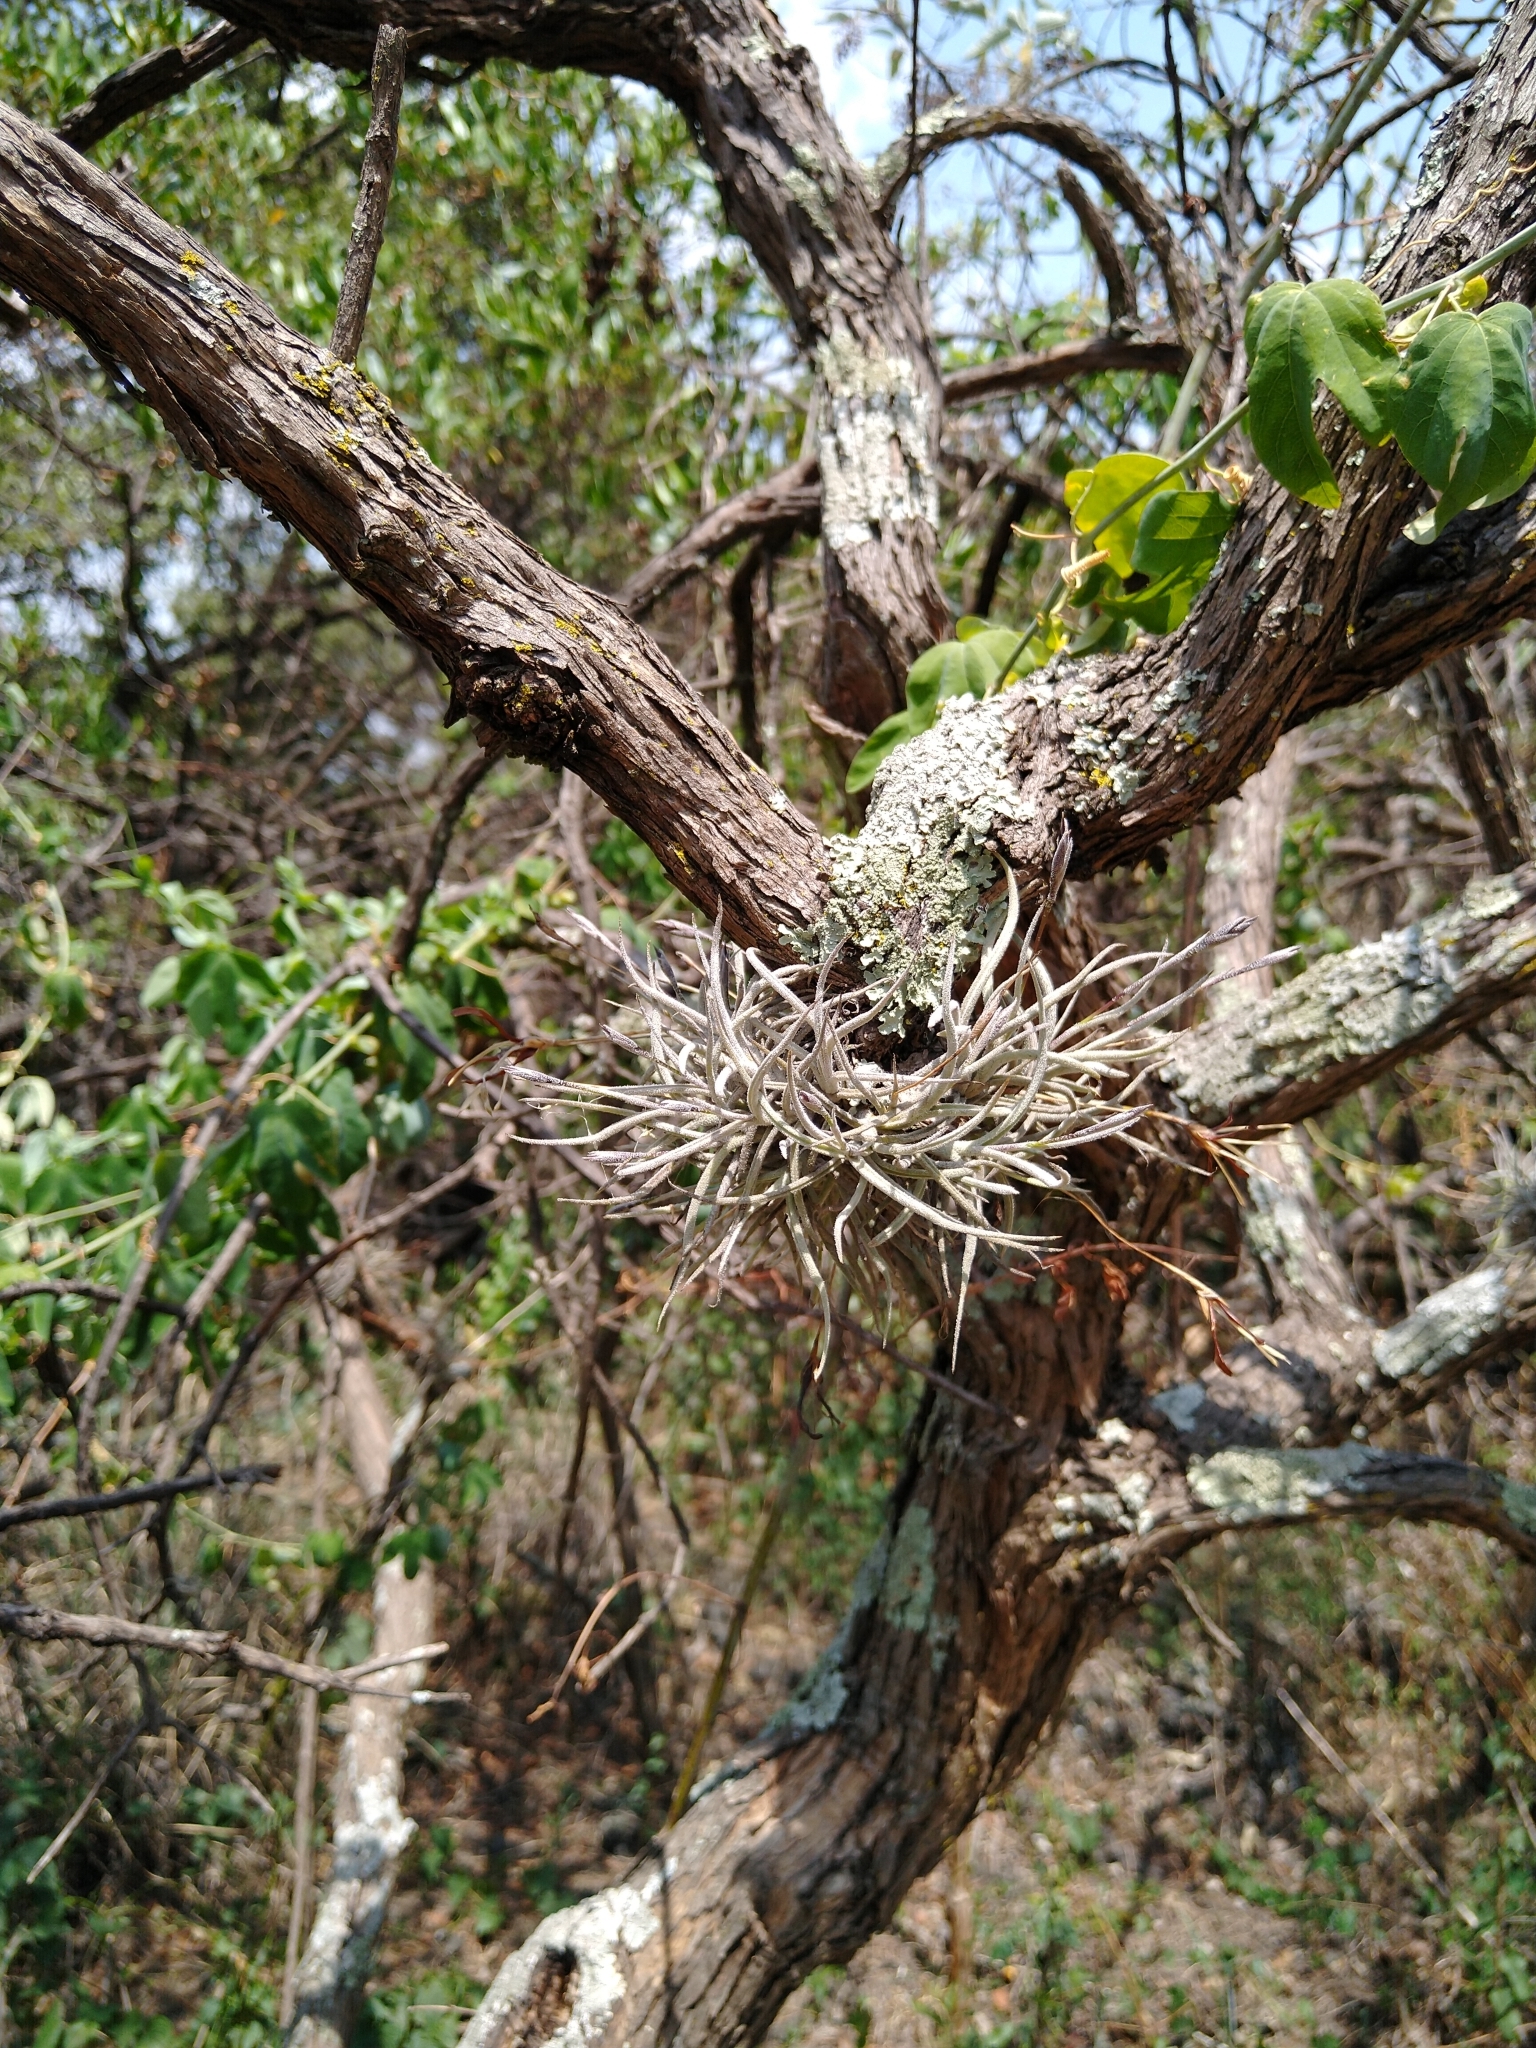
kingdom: Plantae
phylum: Tracheophyta
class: Liliopsida
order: Poales
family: Bromeliaceae
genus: Tillandsia
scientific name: Tillandsia recurvata
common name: Small ballmoss
